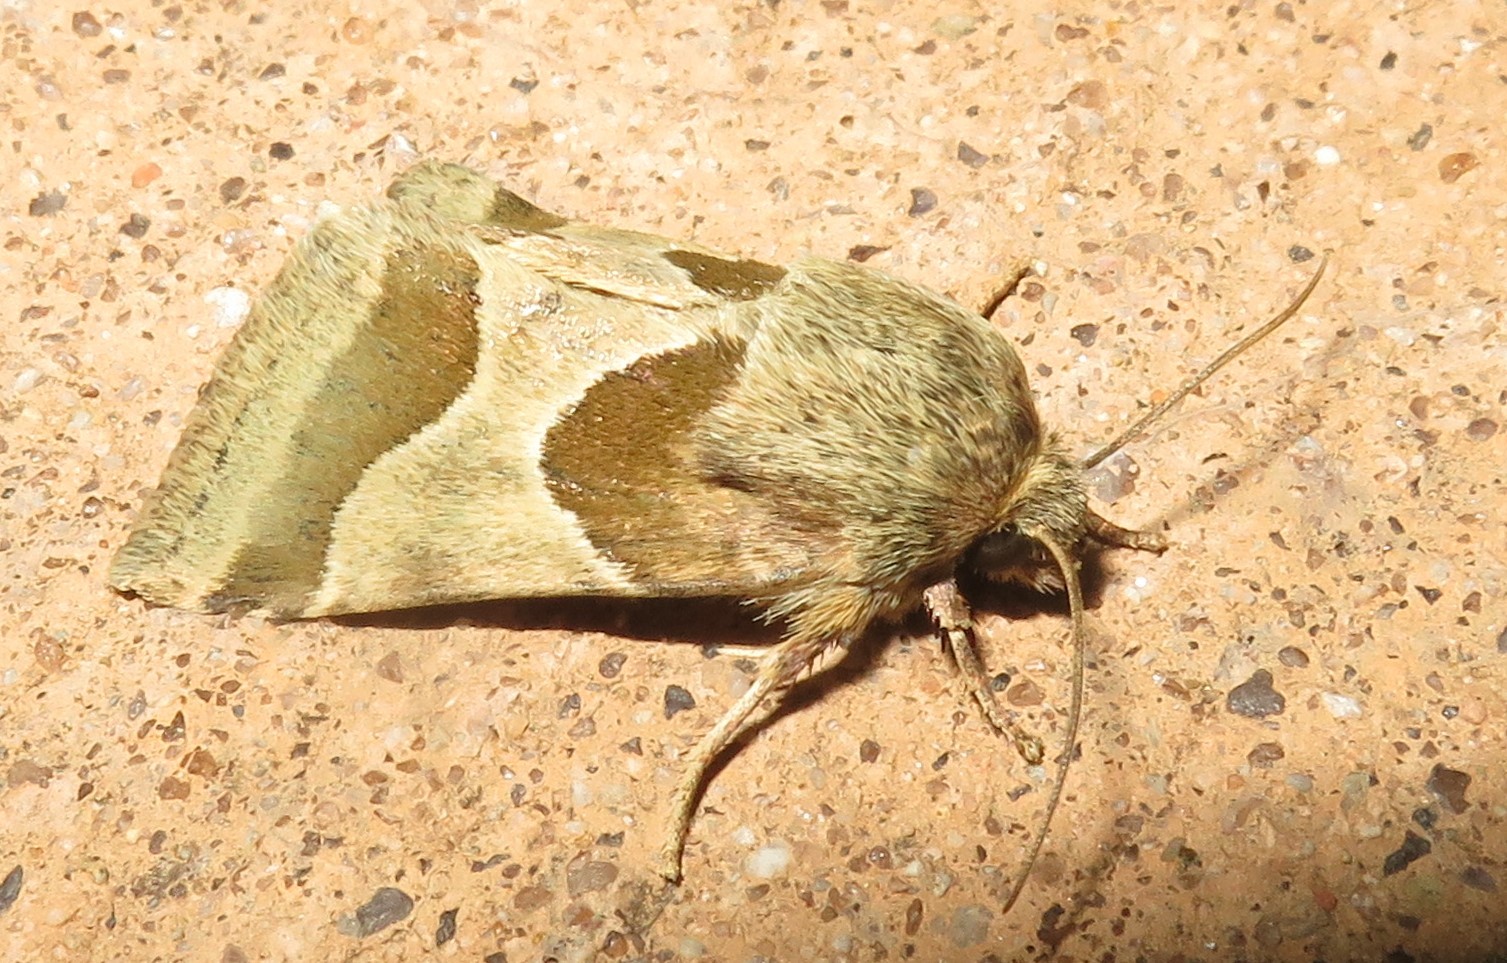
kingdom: Animalia
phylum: Arthropoda
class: Insecta
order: Lepidoptera
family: Noctuidae
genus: Schinia
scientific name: Schinia jaguarina
